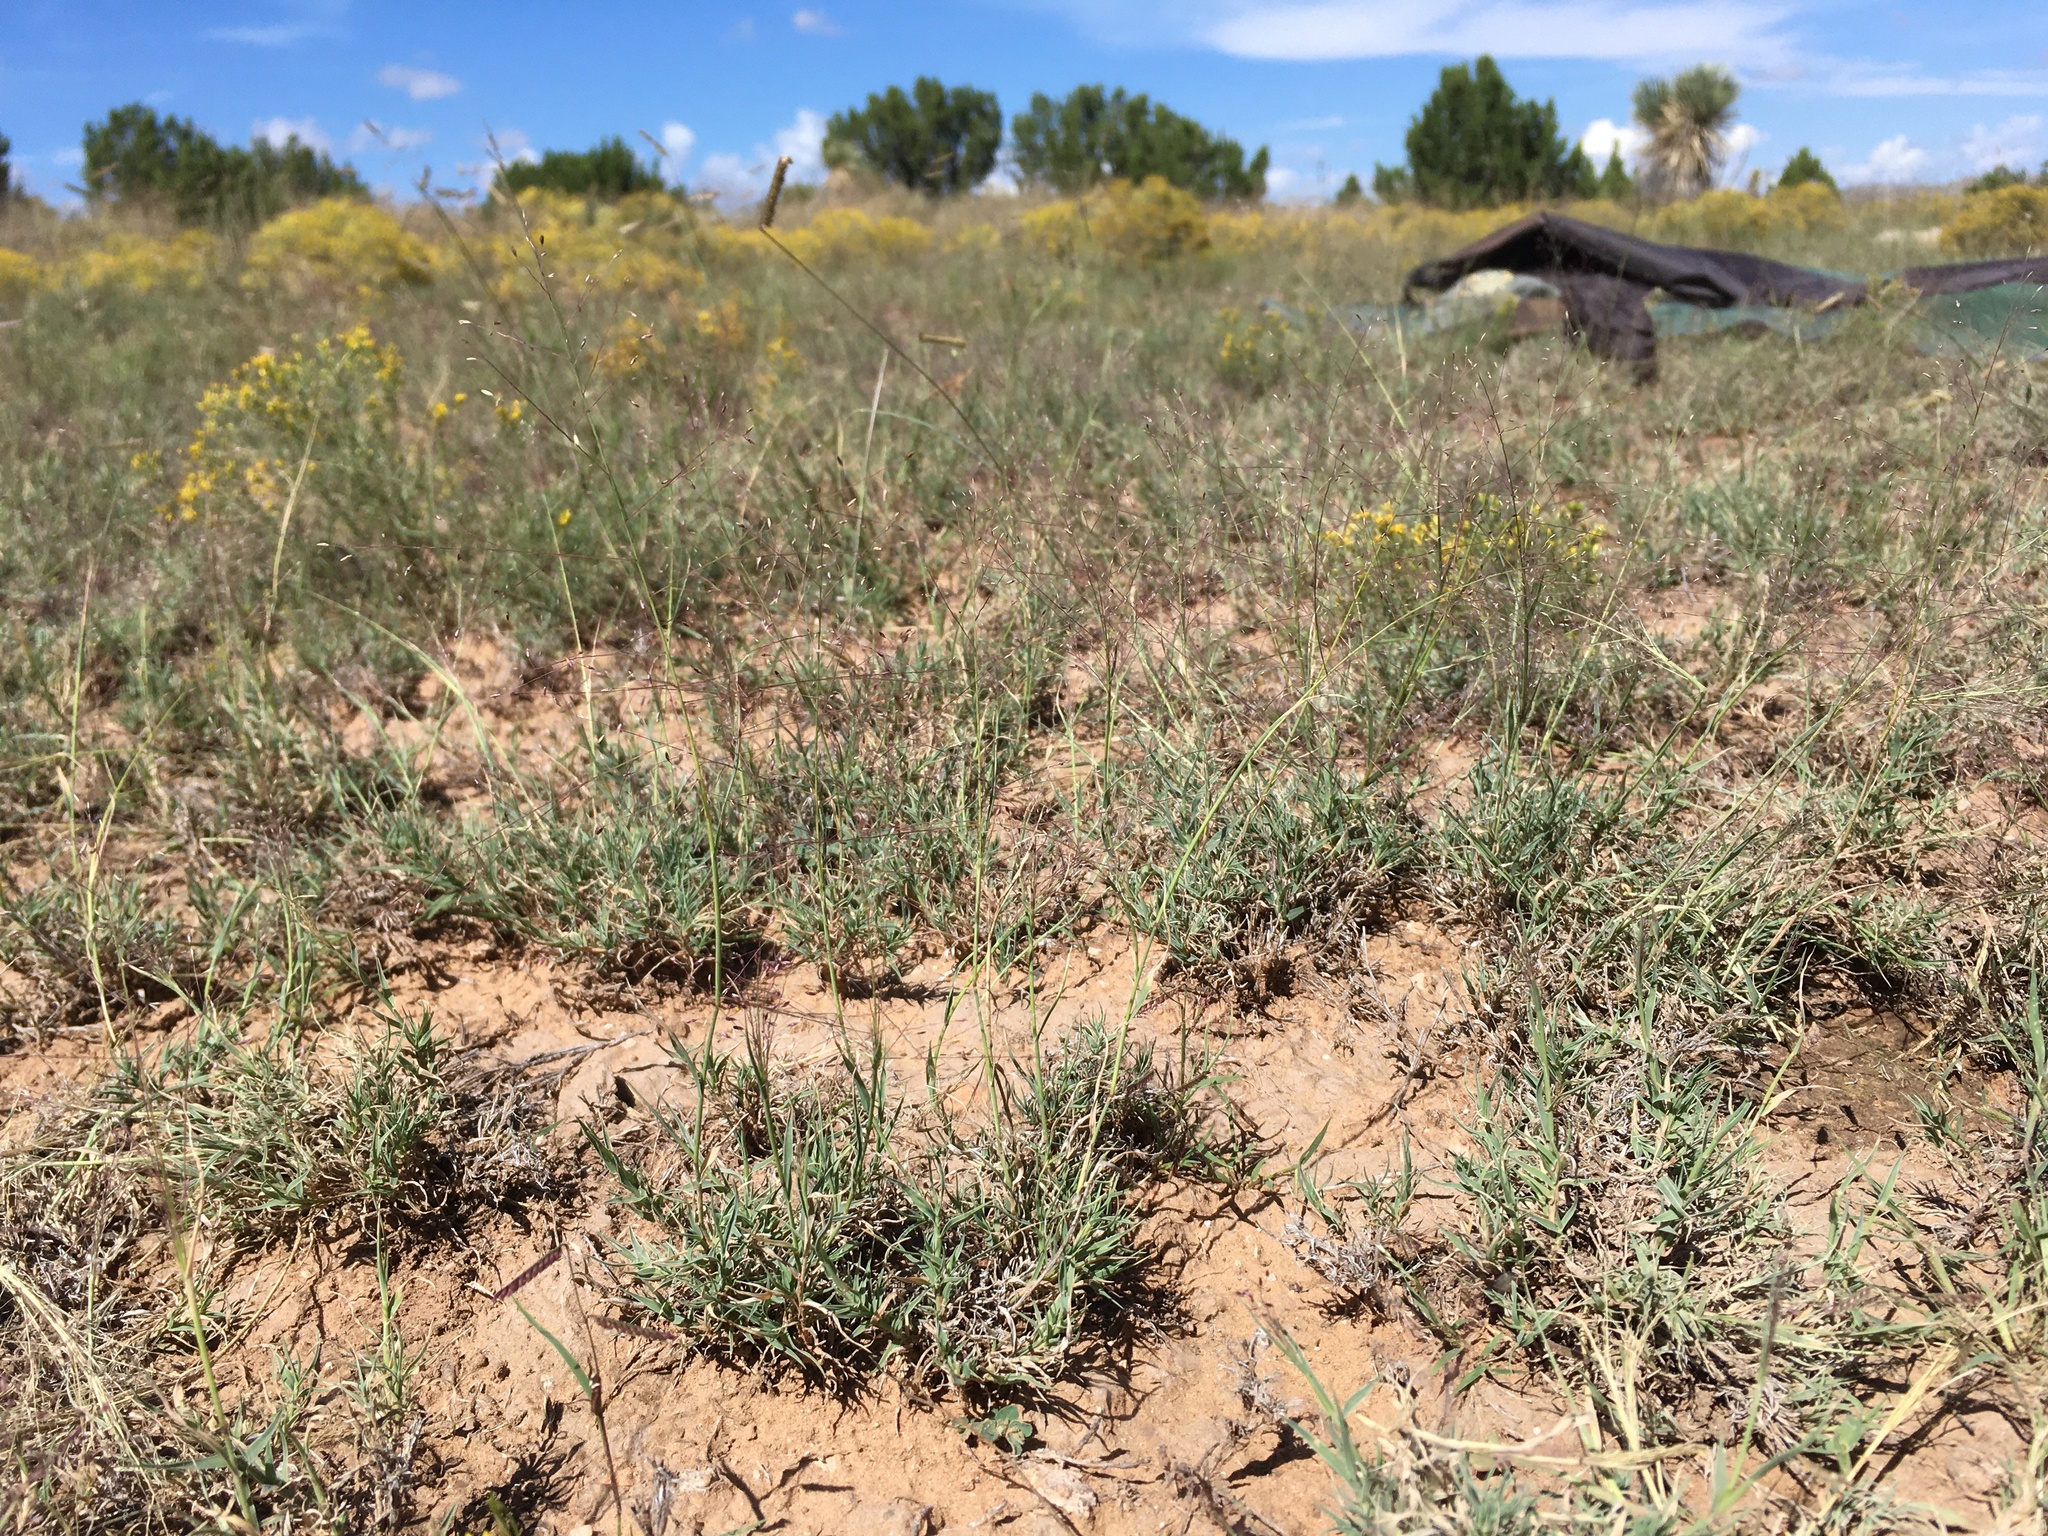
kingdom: Plantae
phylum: Tracheophyta
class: Liliopsida
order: Poales
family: Poaceae
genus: Muhlenbergia
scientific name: Muhlenbergia arenacea
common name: Ear muhly
